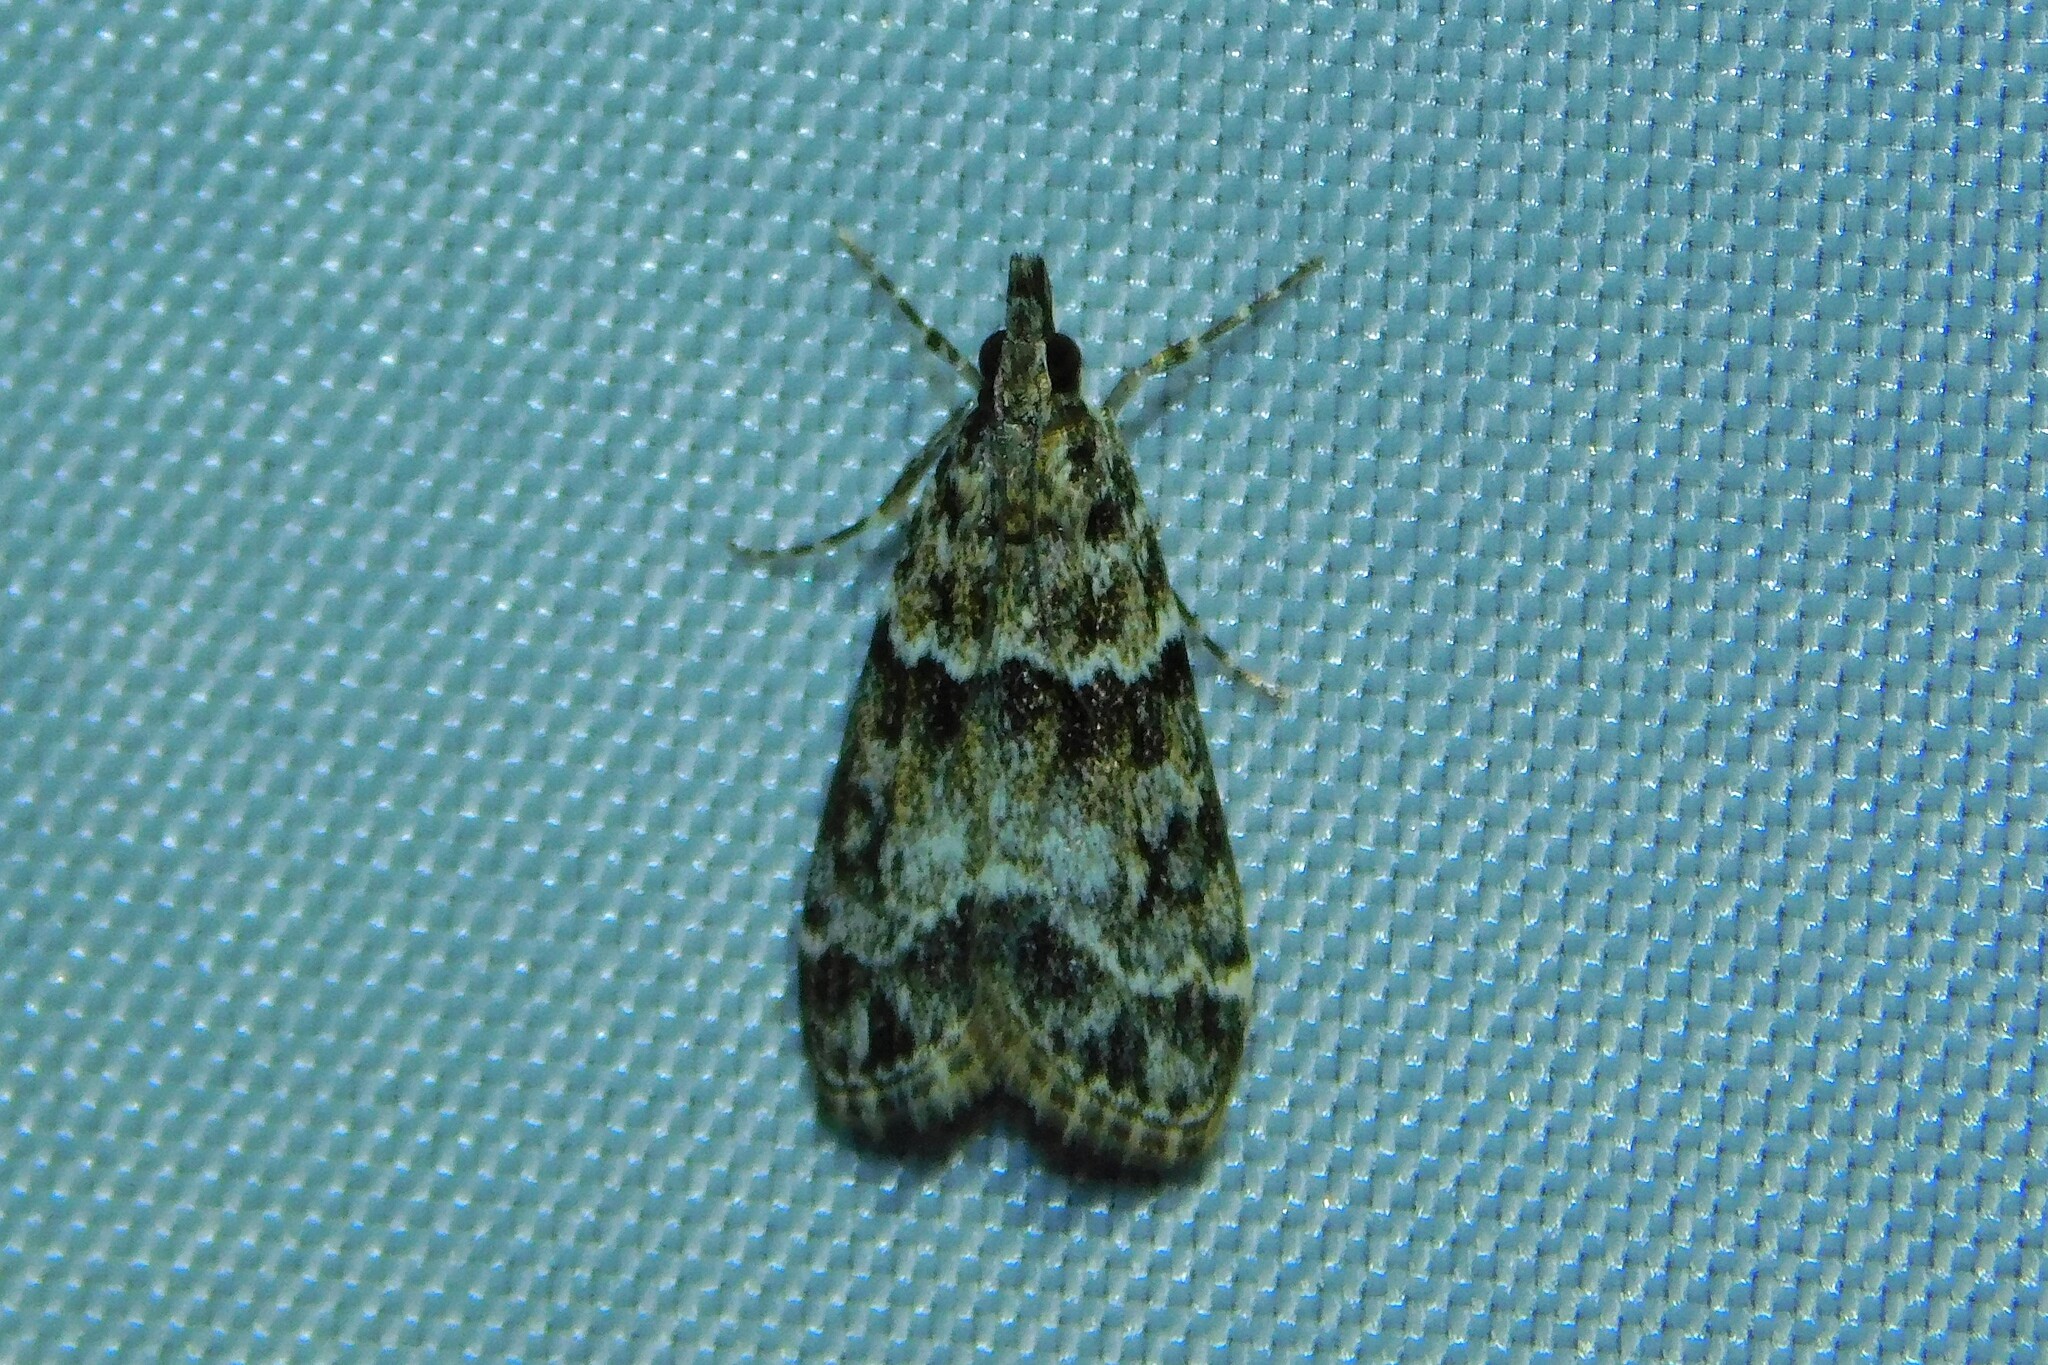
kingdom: Animalia
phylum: Arthropoda
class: Insecta
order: Lepidoptera
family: Crambidae
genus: Eudonia
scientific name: Eudonia mercurella
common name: Small grey
